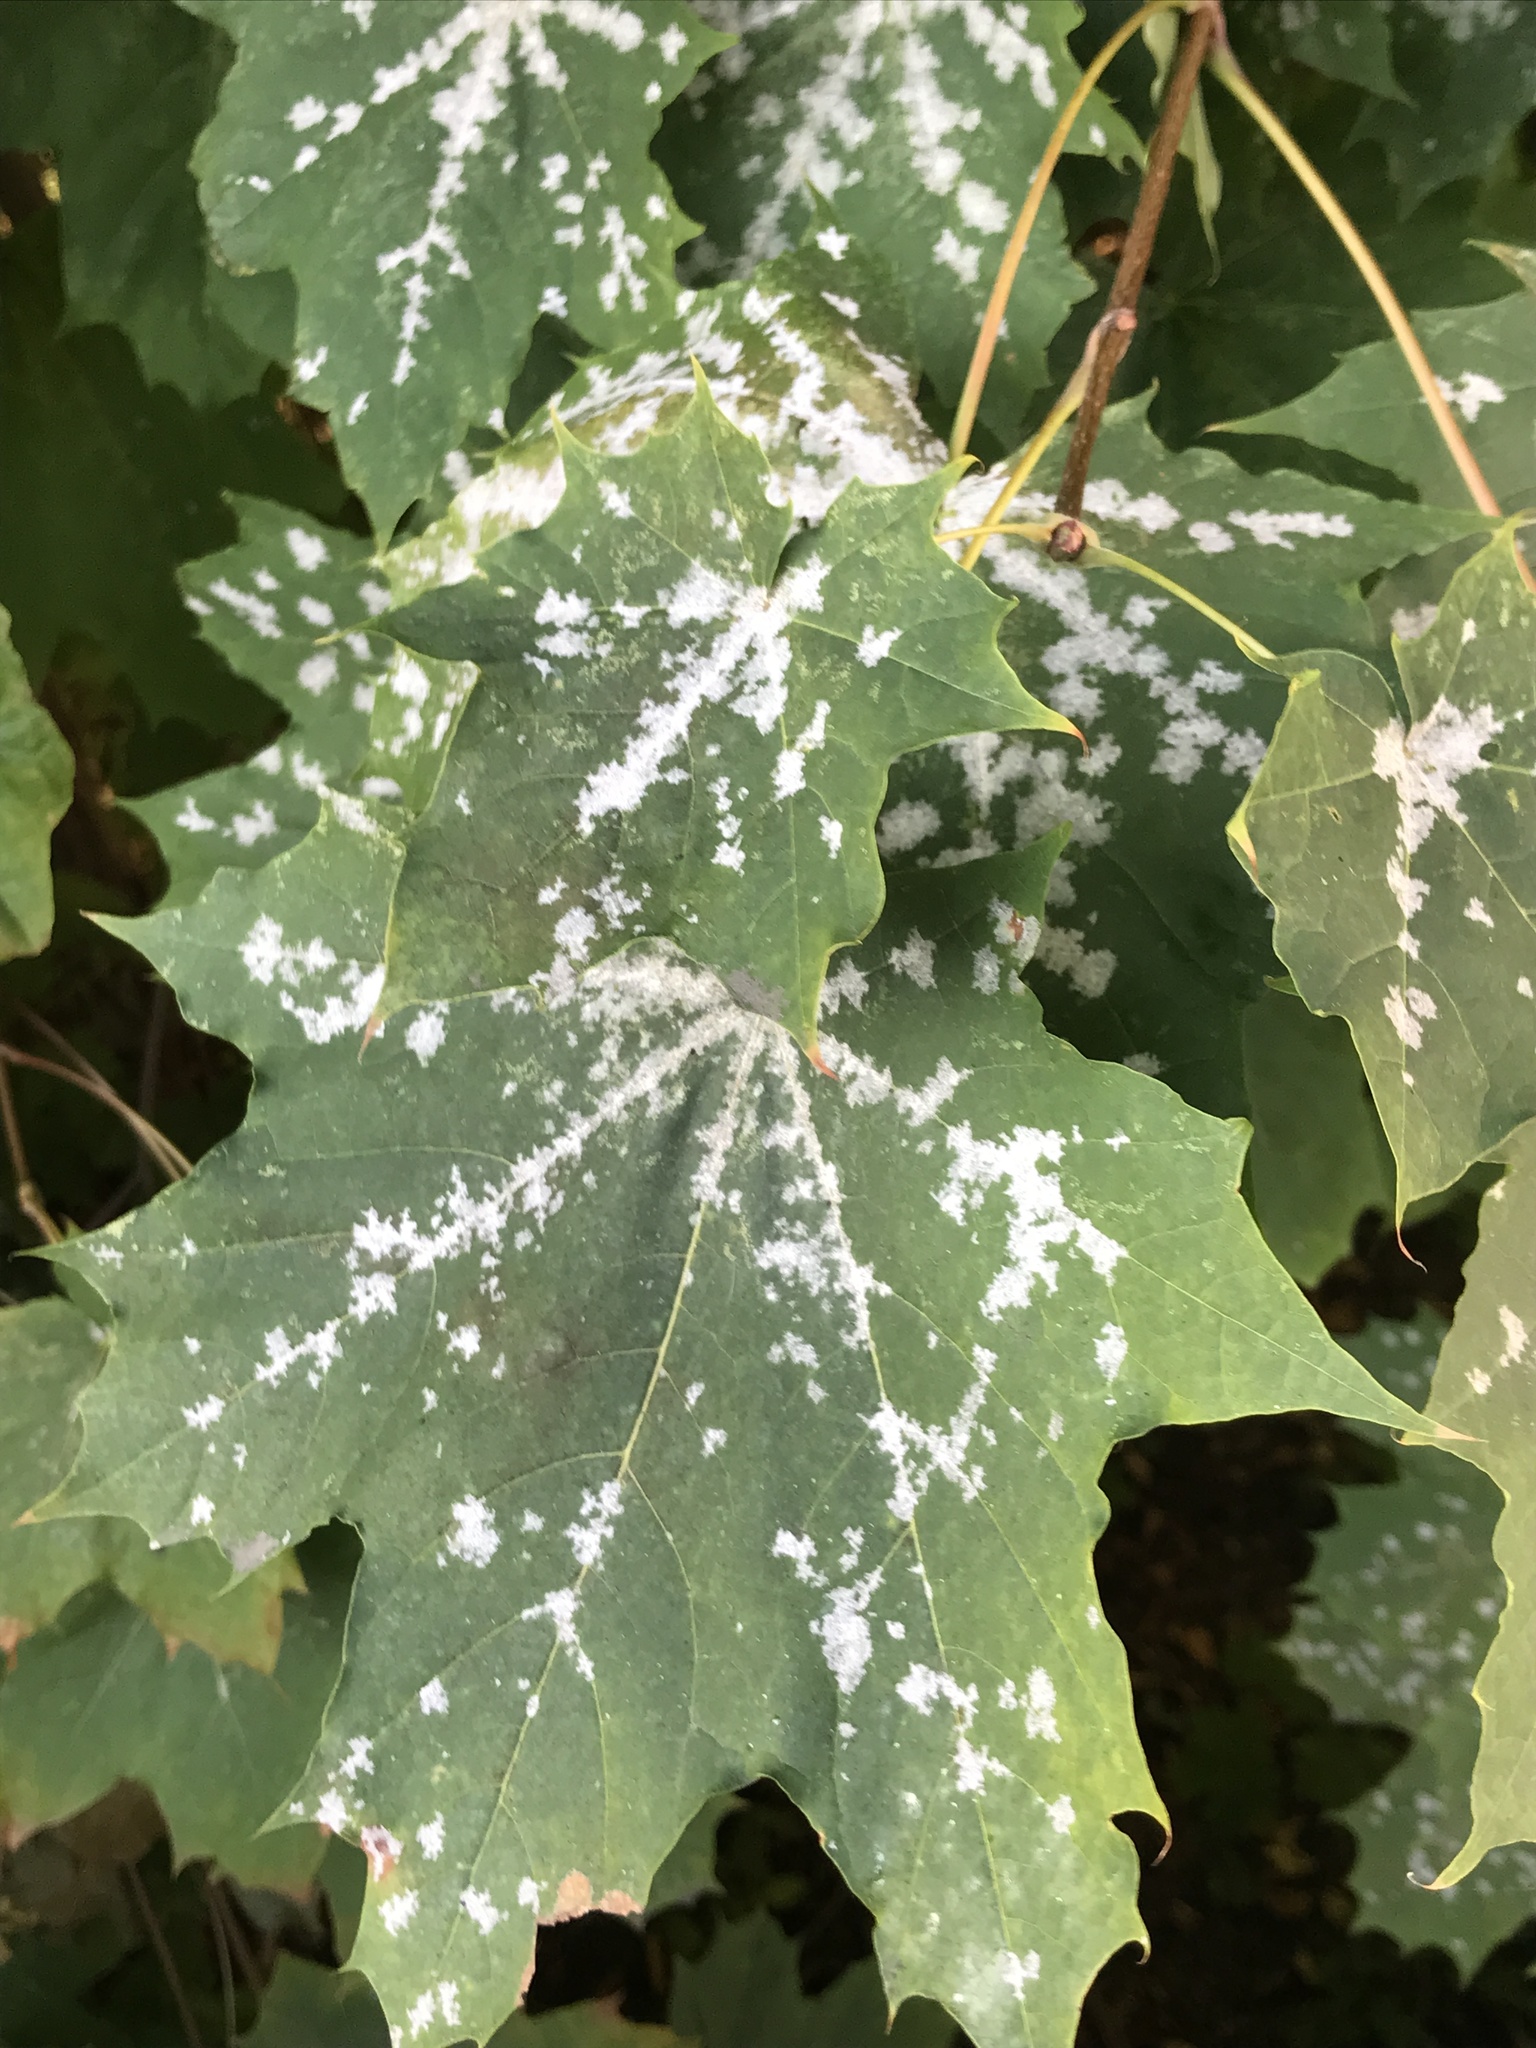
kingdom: Fungi
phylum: Ascomycota
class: Leotiomycetes
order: Helotiales
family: Erysiphaceae
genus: Sawadaea
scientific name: Sawadaea tulasnei
